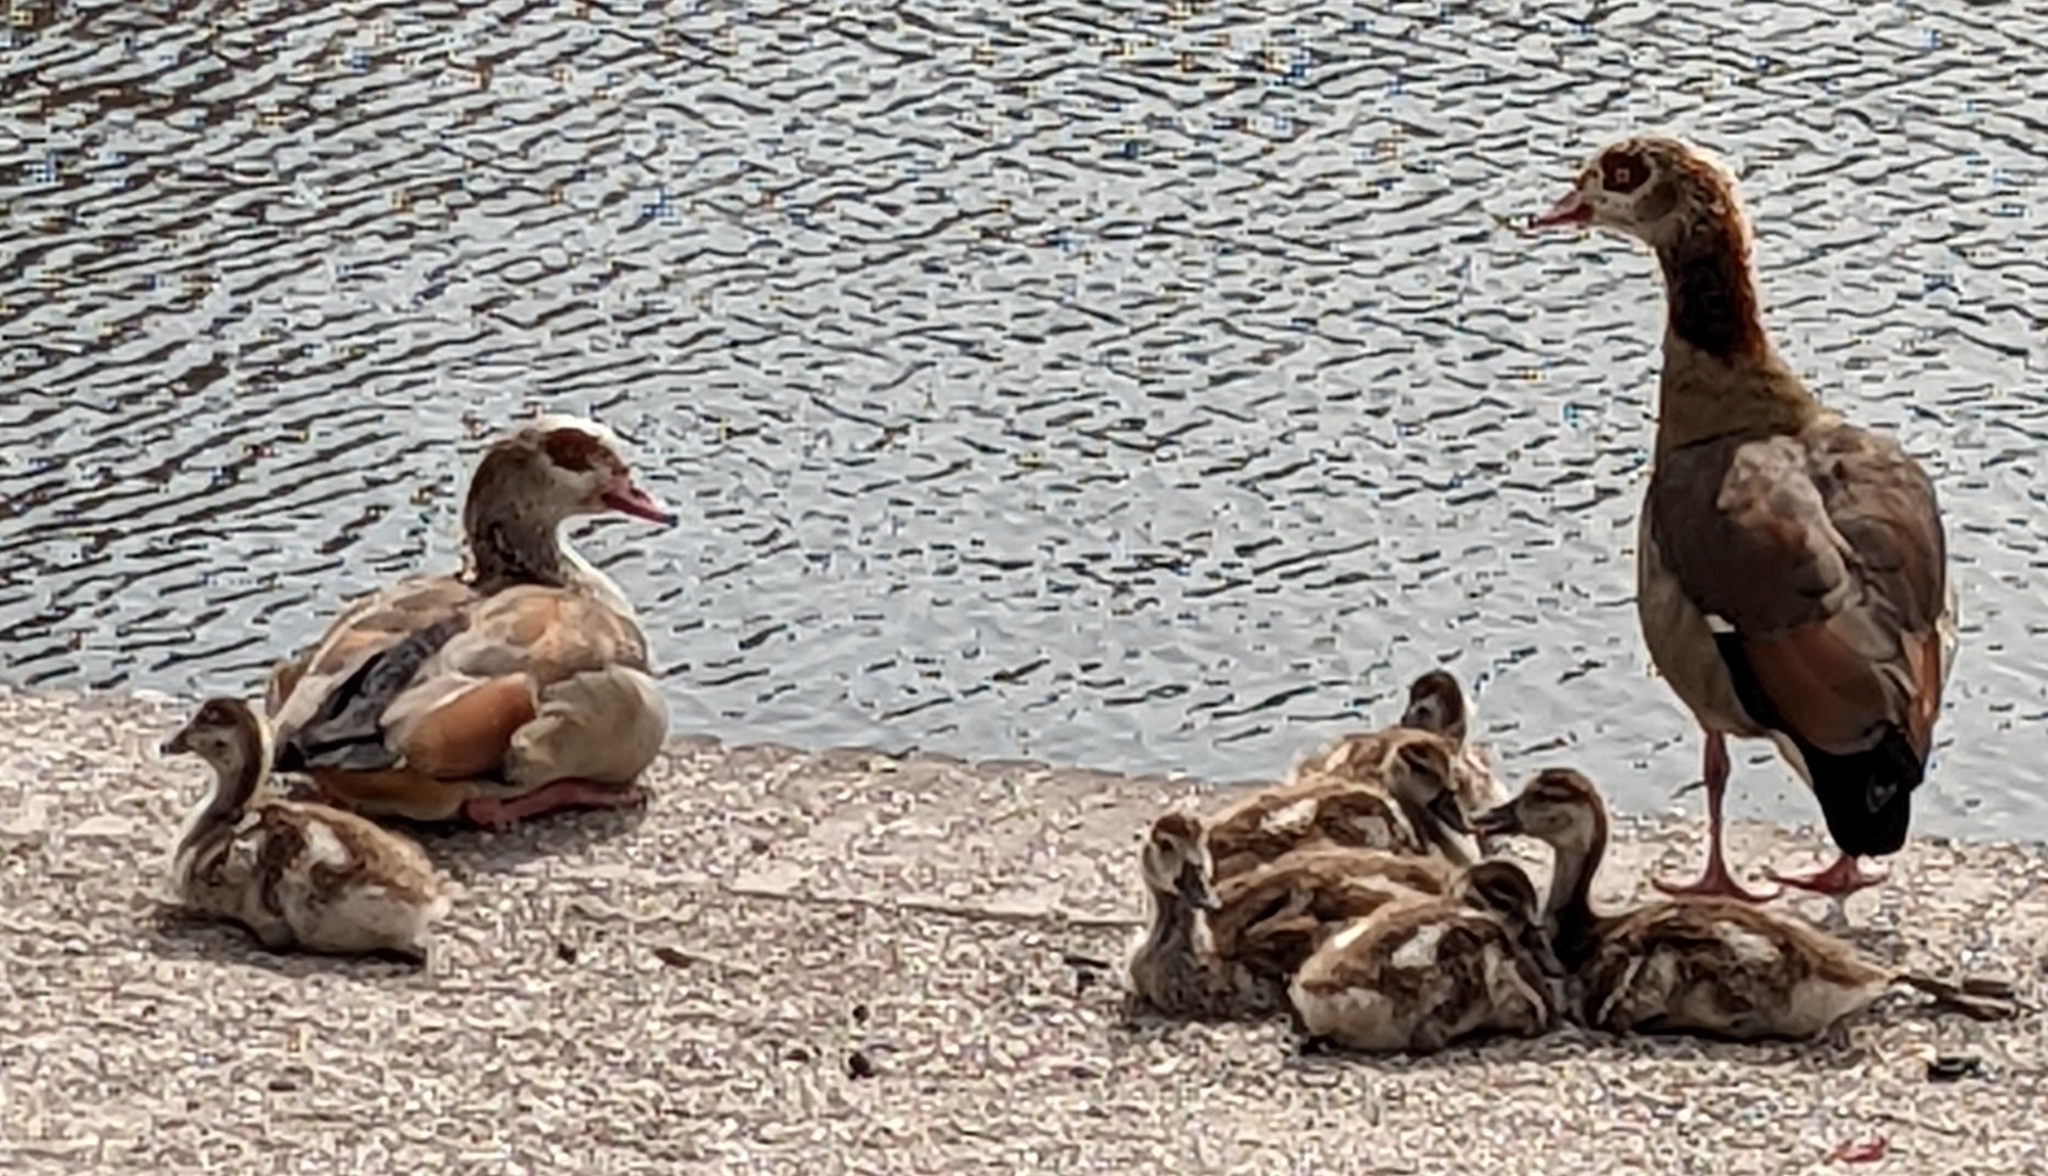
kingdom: Animalia
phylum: Chordata
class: Aves
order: Anseriformes
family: Anatidae
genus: Alopochen
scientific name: Alopochen aegyptiaca
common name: Egyptian goose
